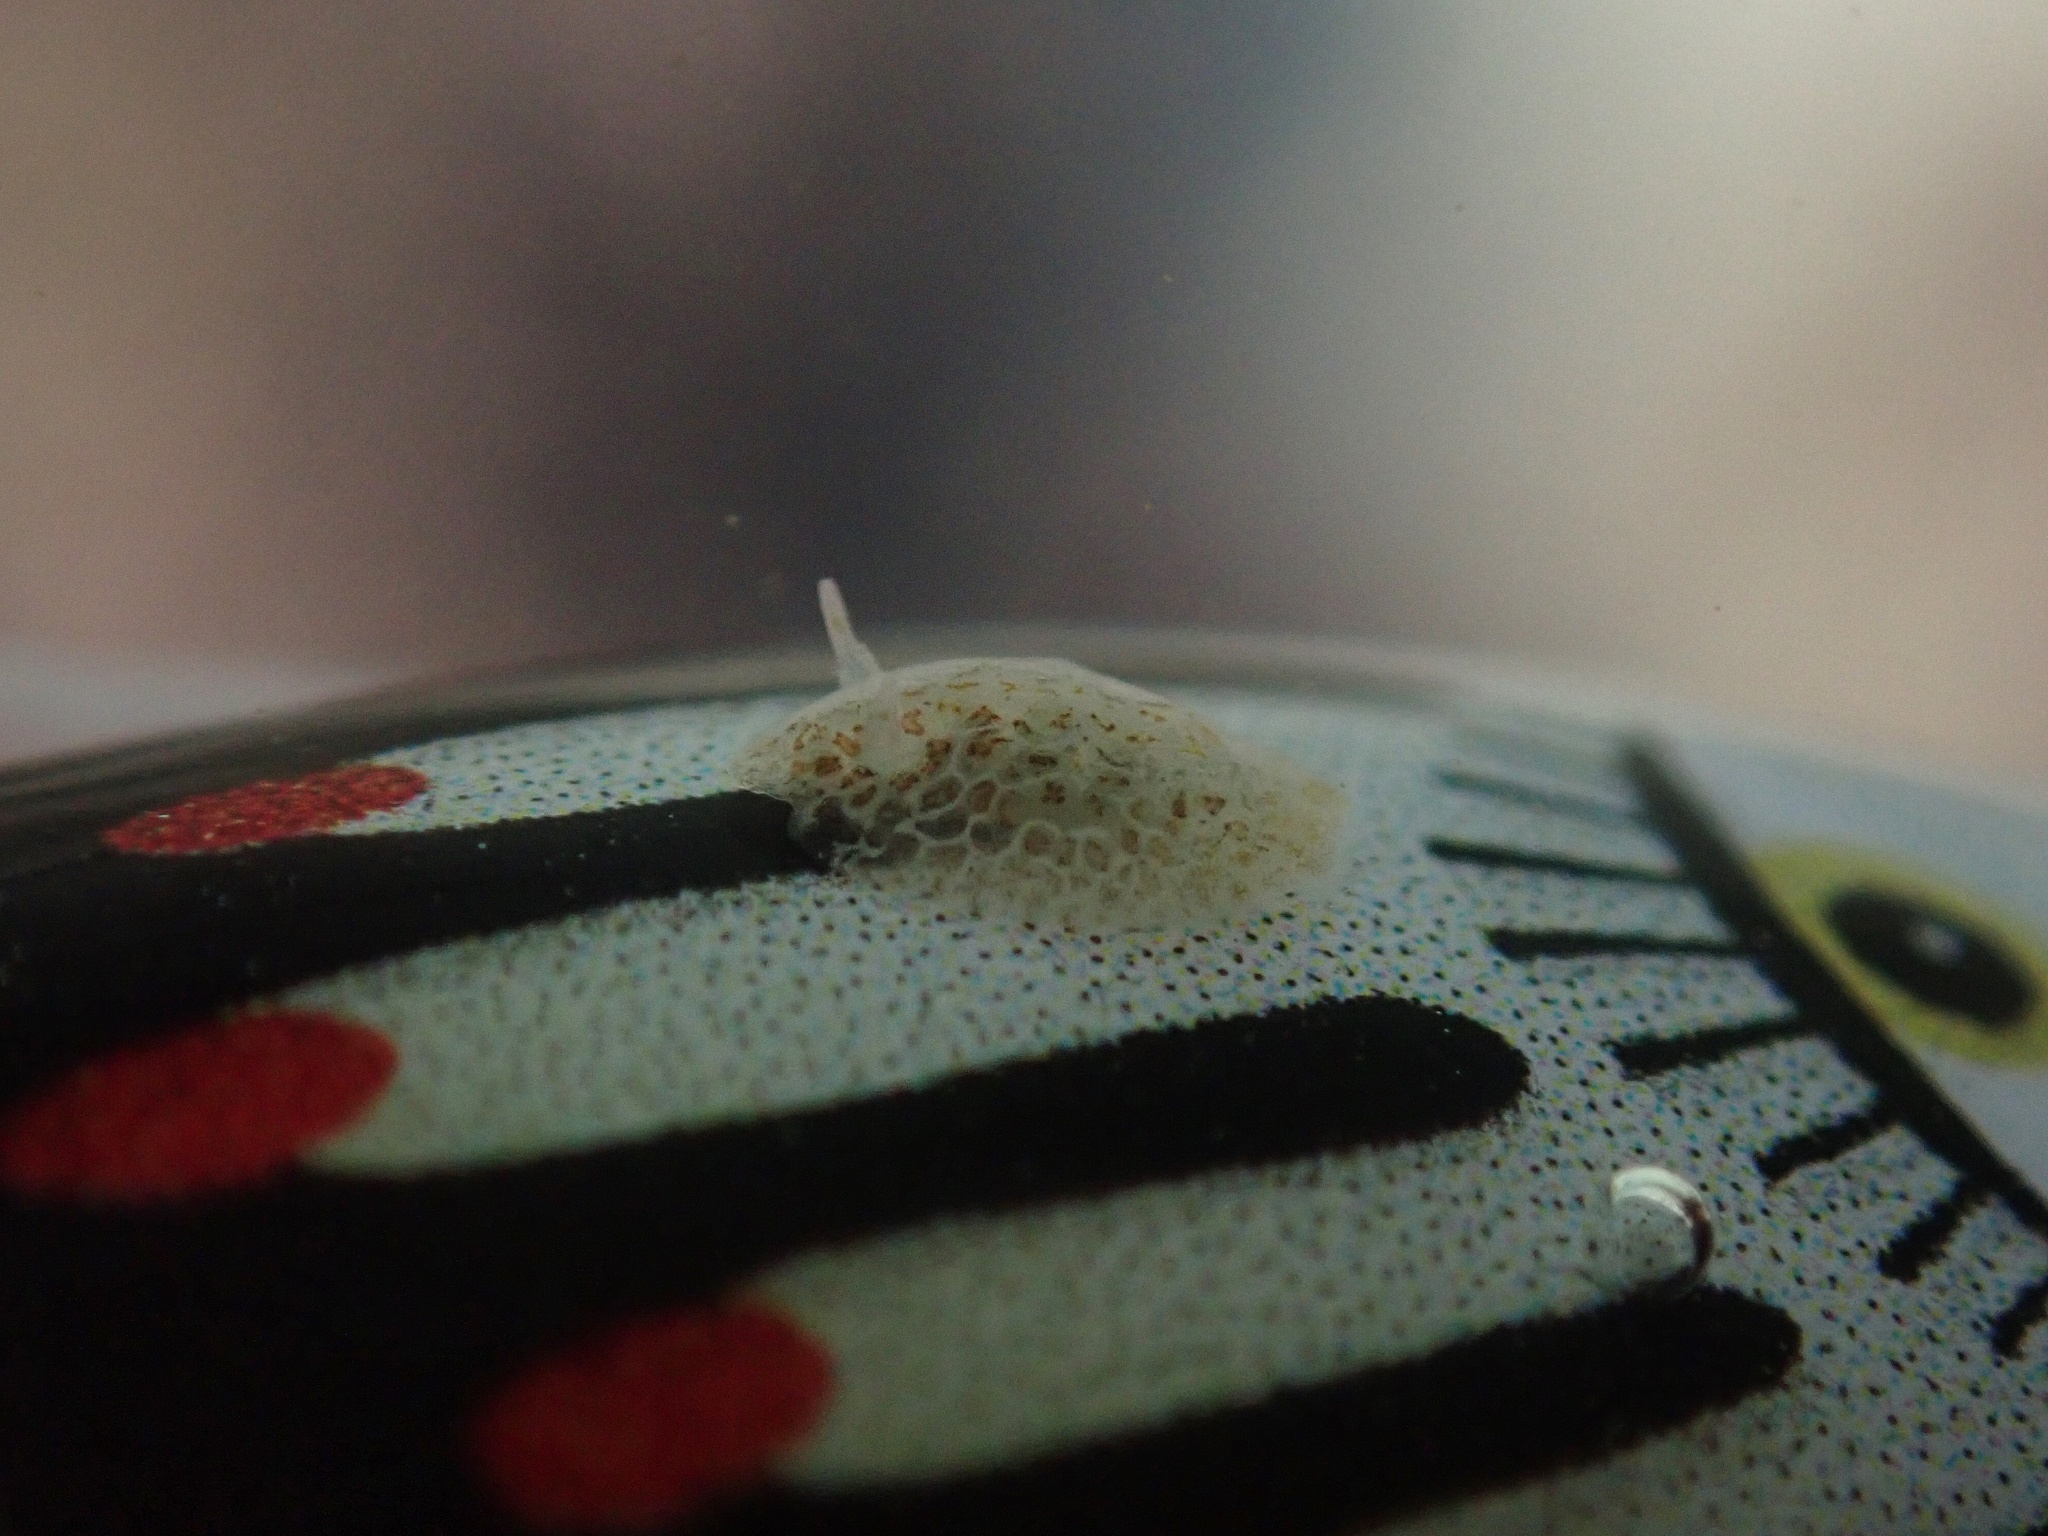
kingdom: Animalia
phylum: Mollusca
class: Gastropoda
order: Nudibranchia
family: Corambidae
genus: Corambe
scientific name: Corambe steinbergae
